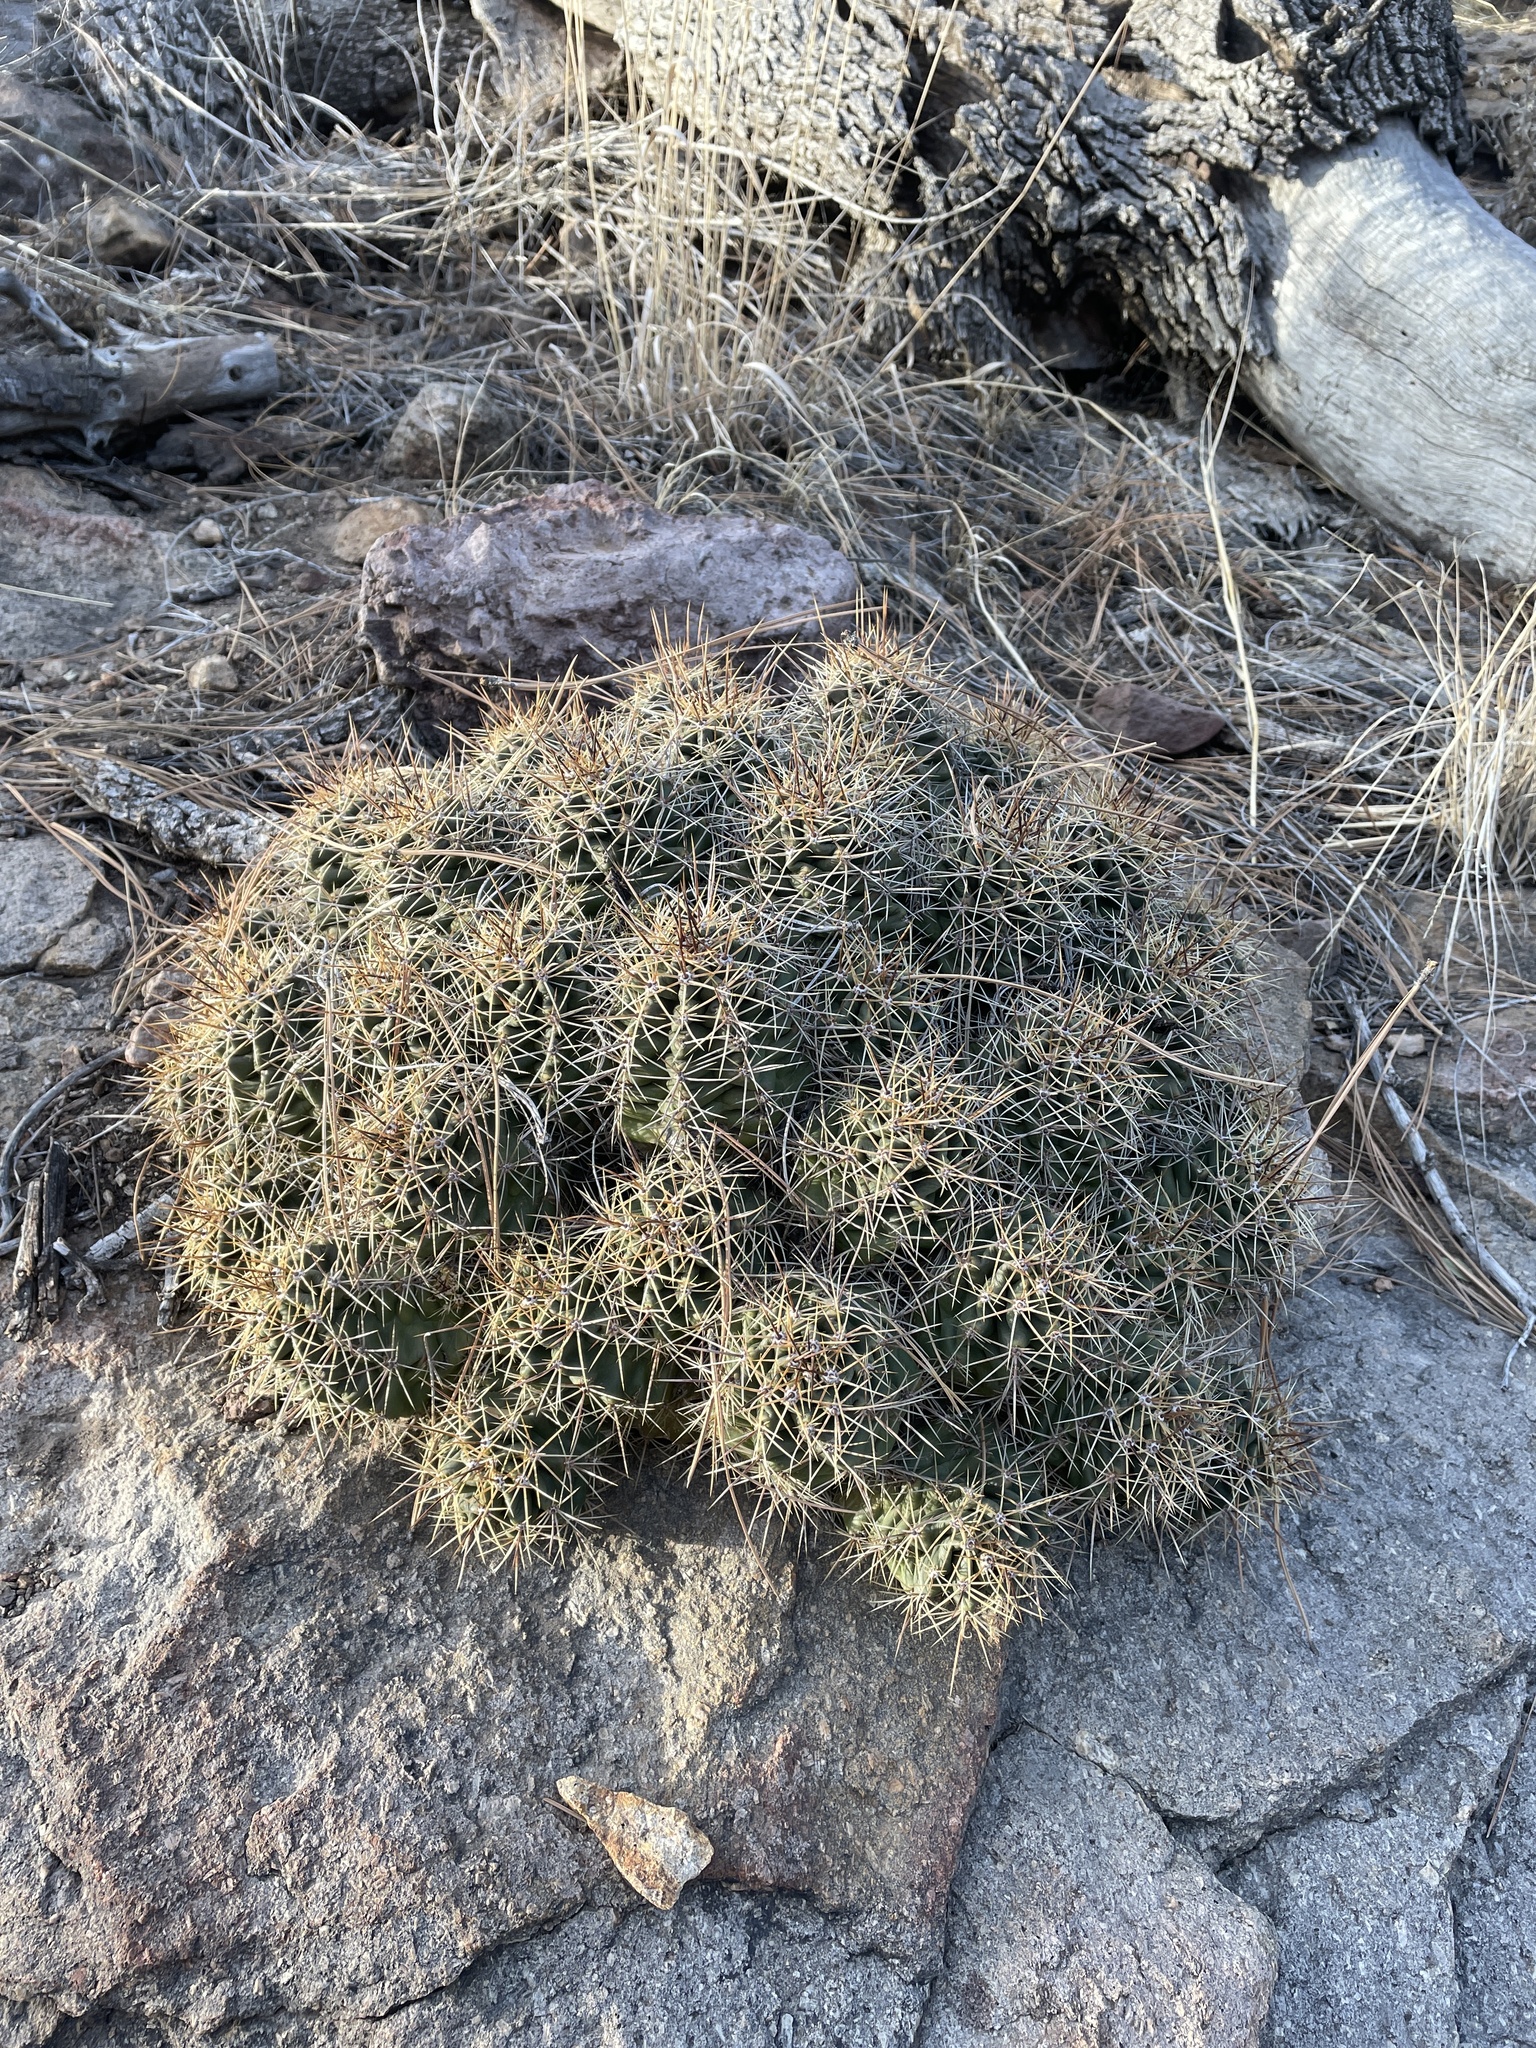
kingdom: Plantae
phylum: Tracheophyta
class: Magnoliopsida
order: Caryophyllales
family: Cactaceae
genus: Echinocereus
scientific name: Echinocereus coccineus
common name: Scarlet hedgehog cactus
